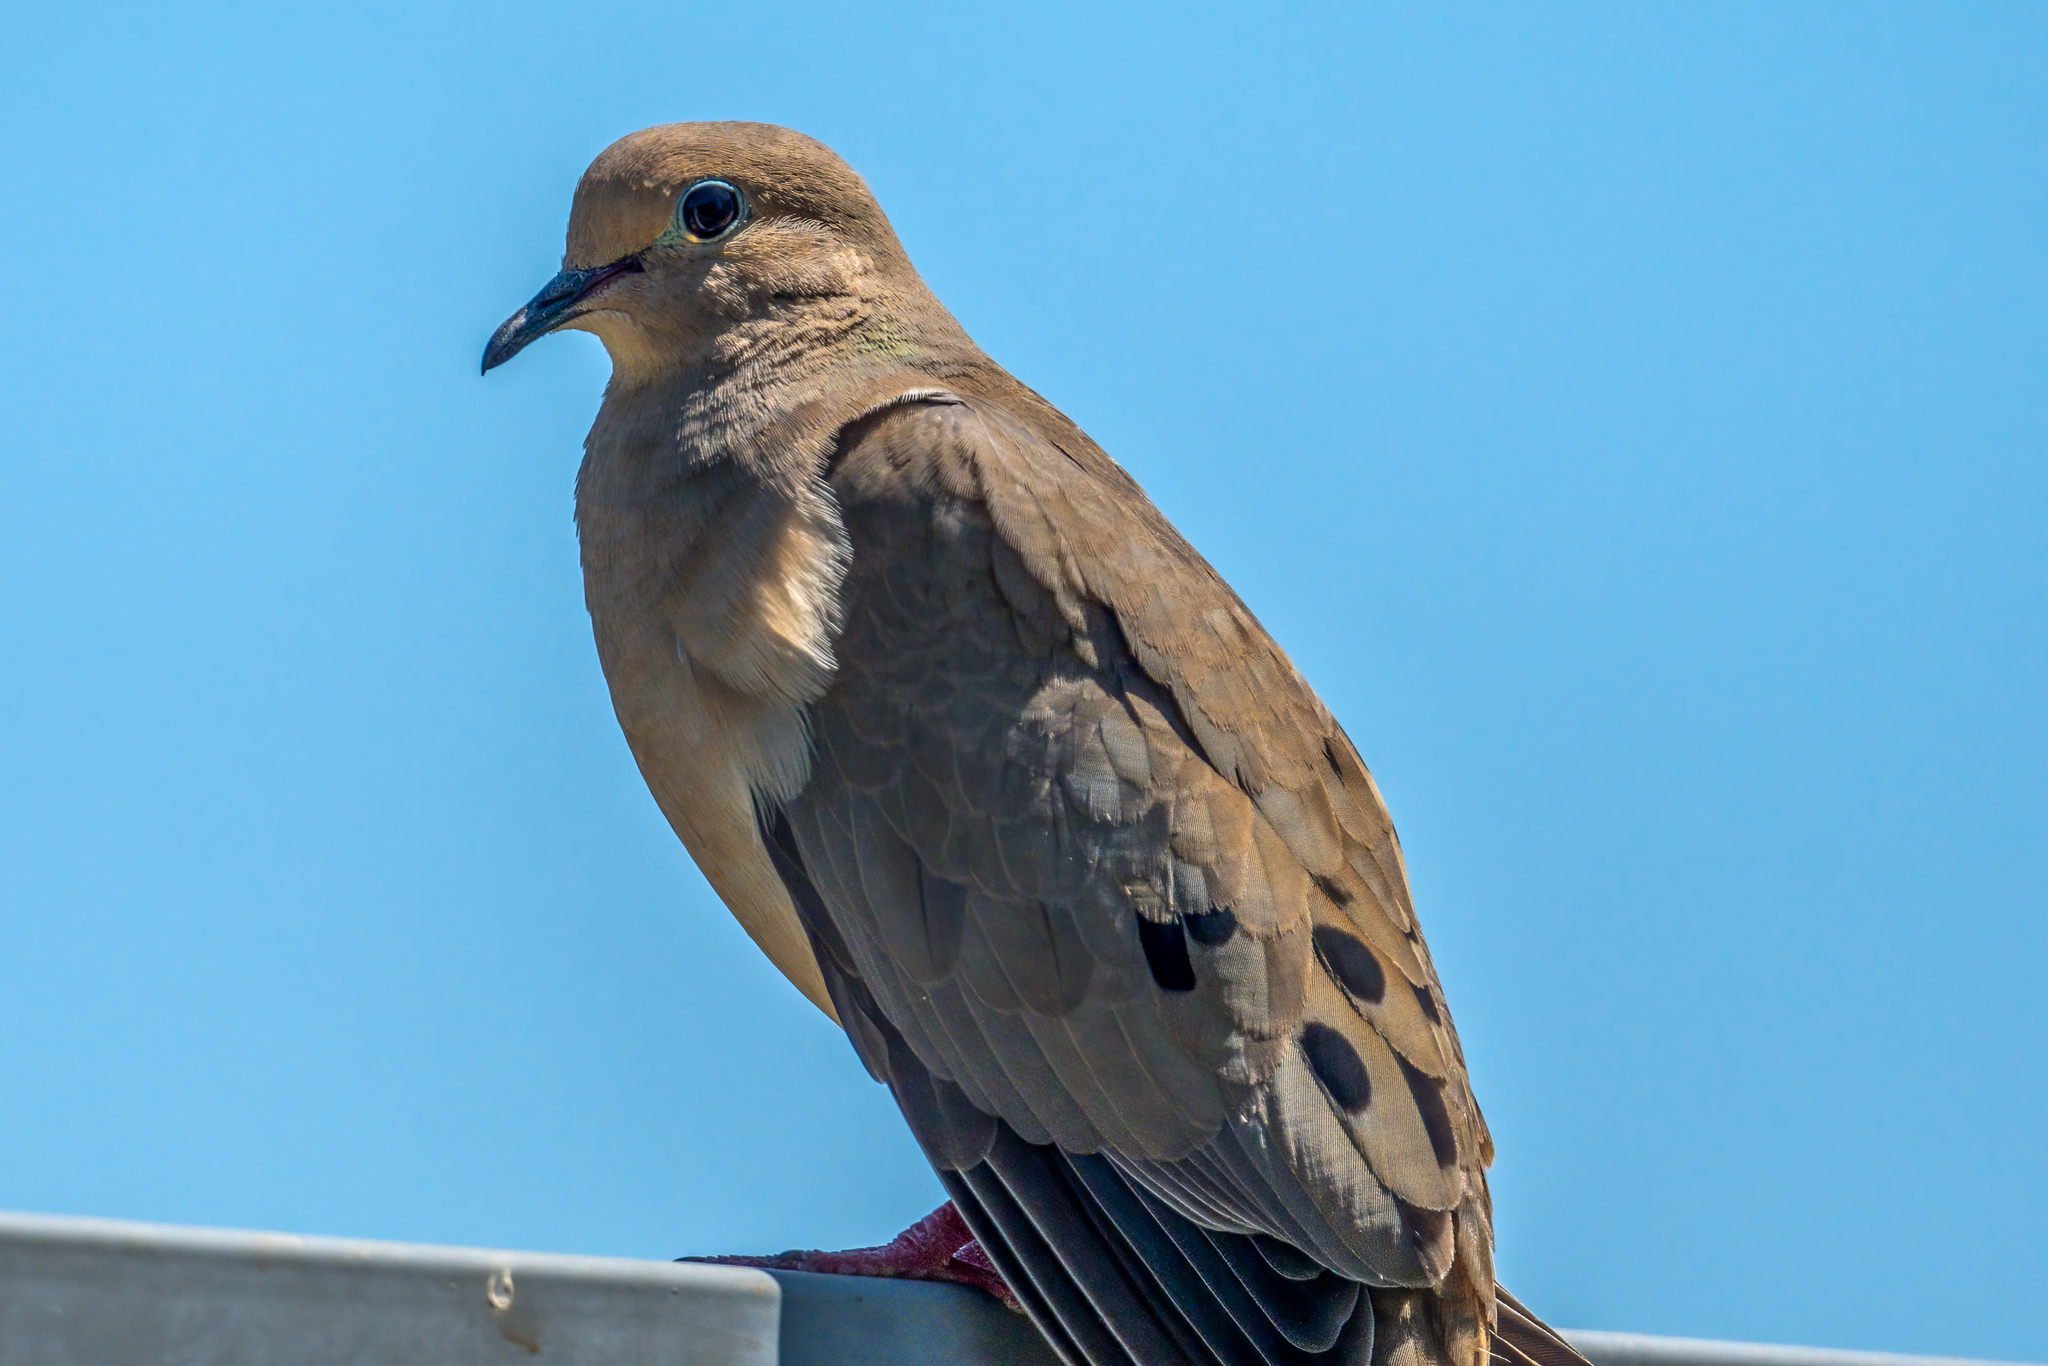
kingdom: Animalia
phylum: Chordata
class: Aves
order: Columbiformes
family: Columbidae
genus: Zenaida
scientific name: Zenaida macroura
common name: Mourning dove
